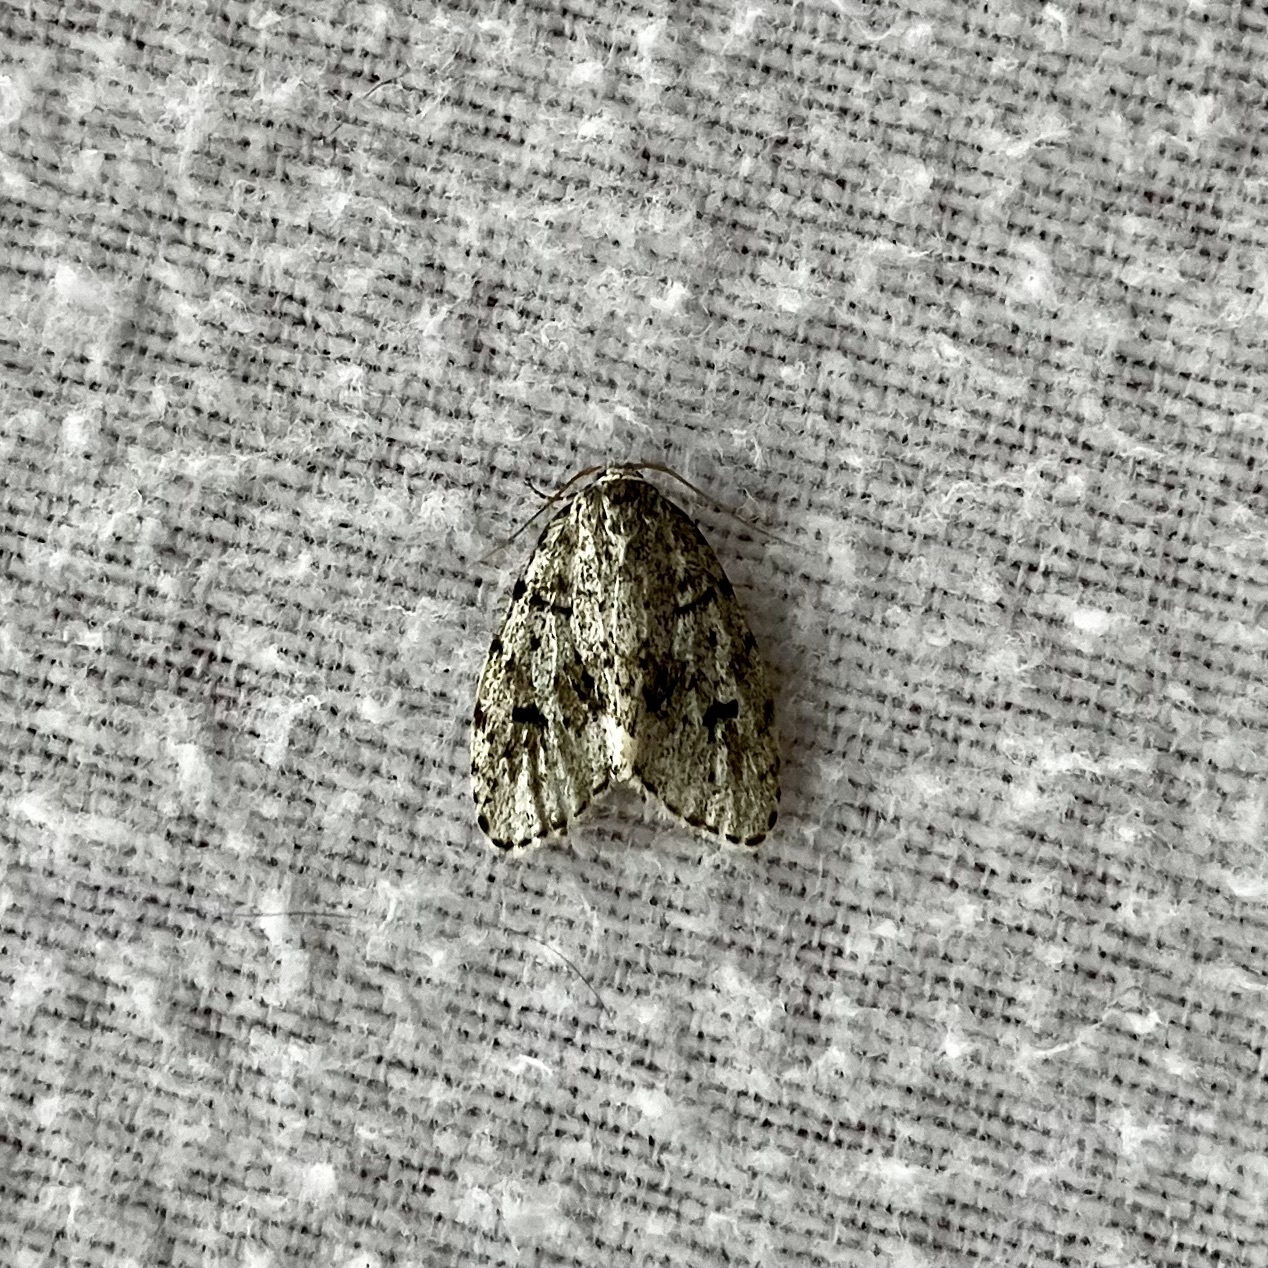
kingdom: Animalia
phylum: Arthropoda
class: Insecta
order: Lepidoptera
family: Erebidae
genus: Clemensia
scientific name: Clemensia umbrata
